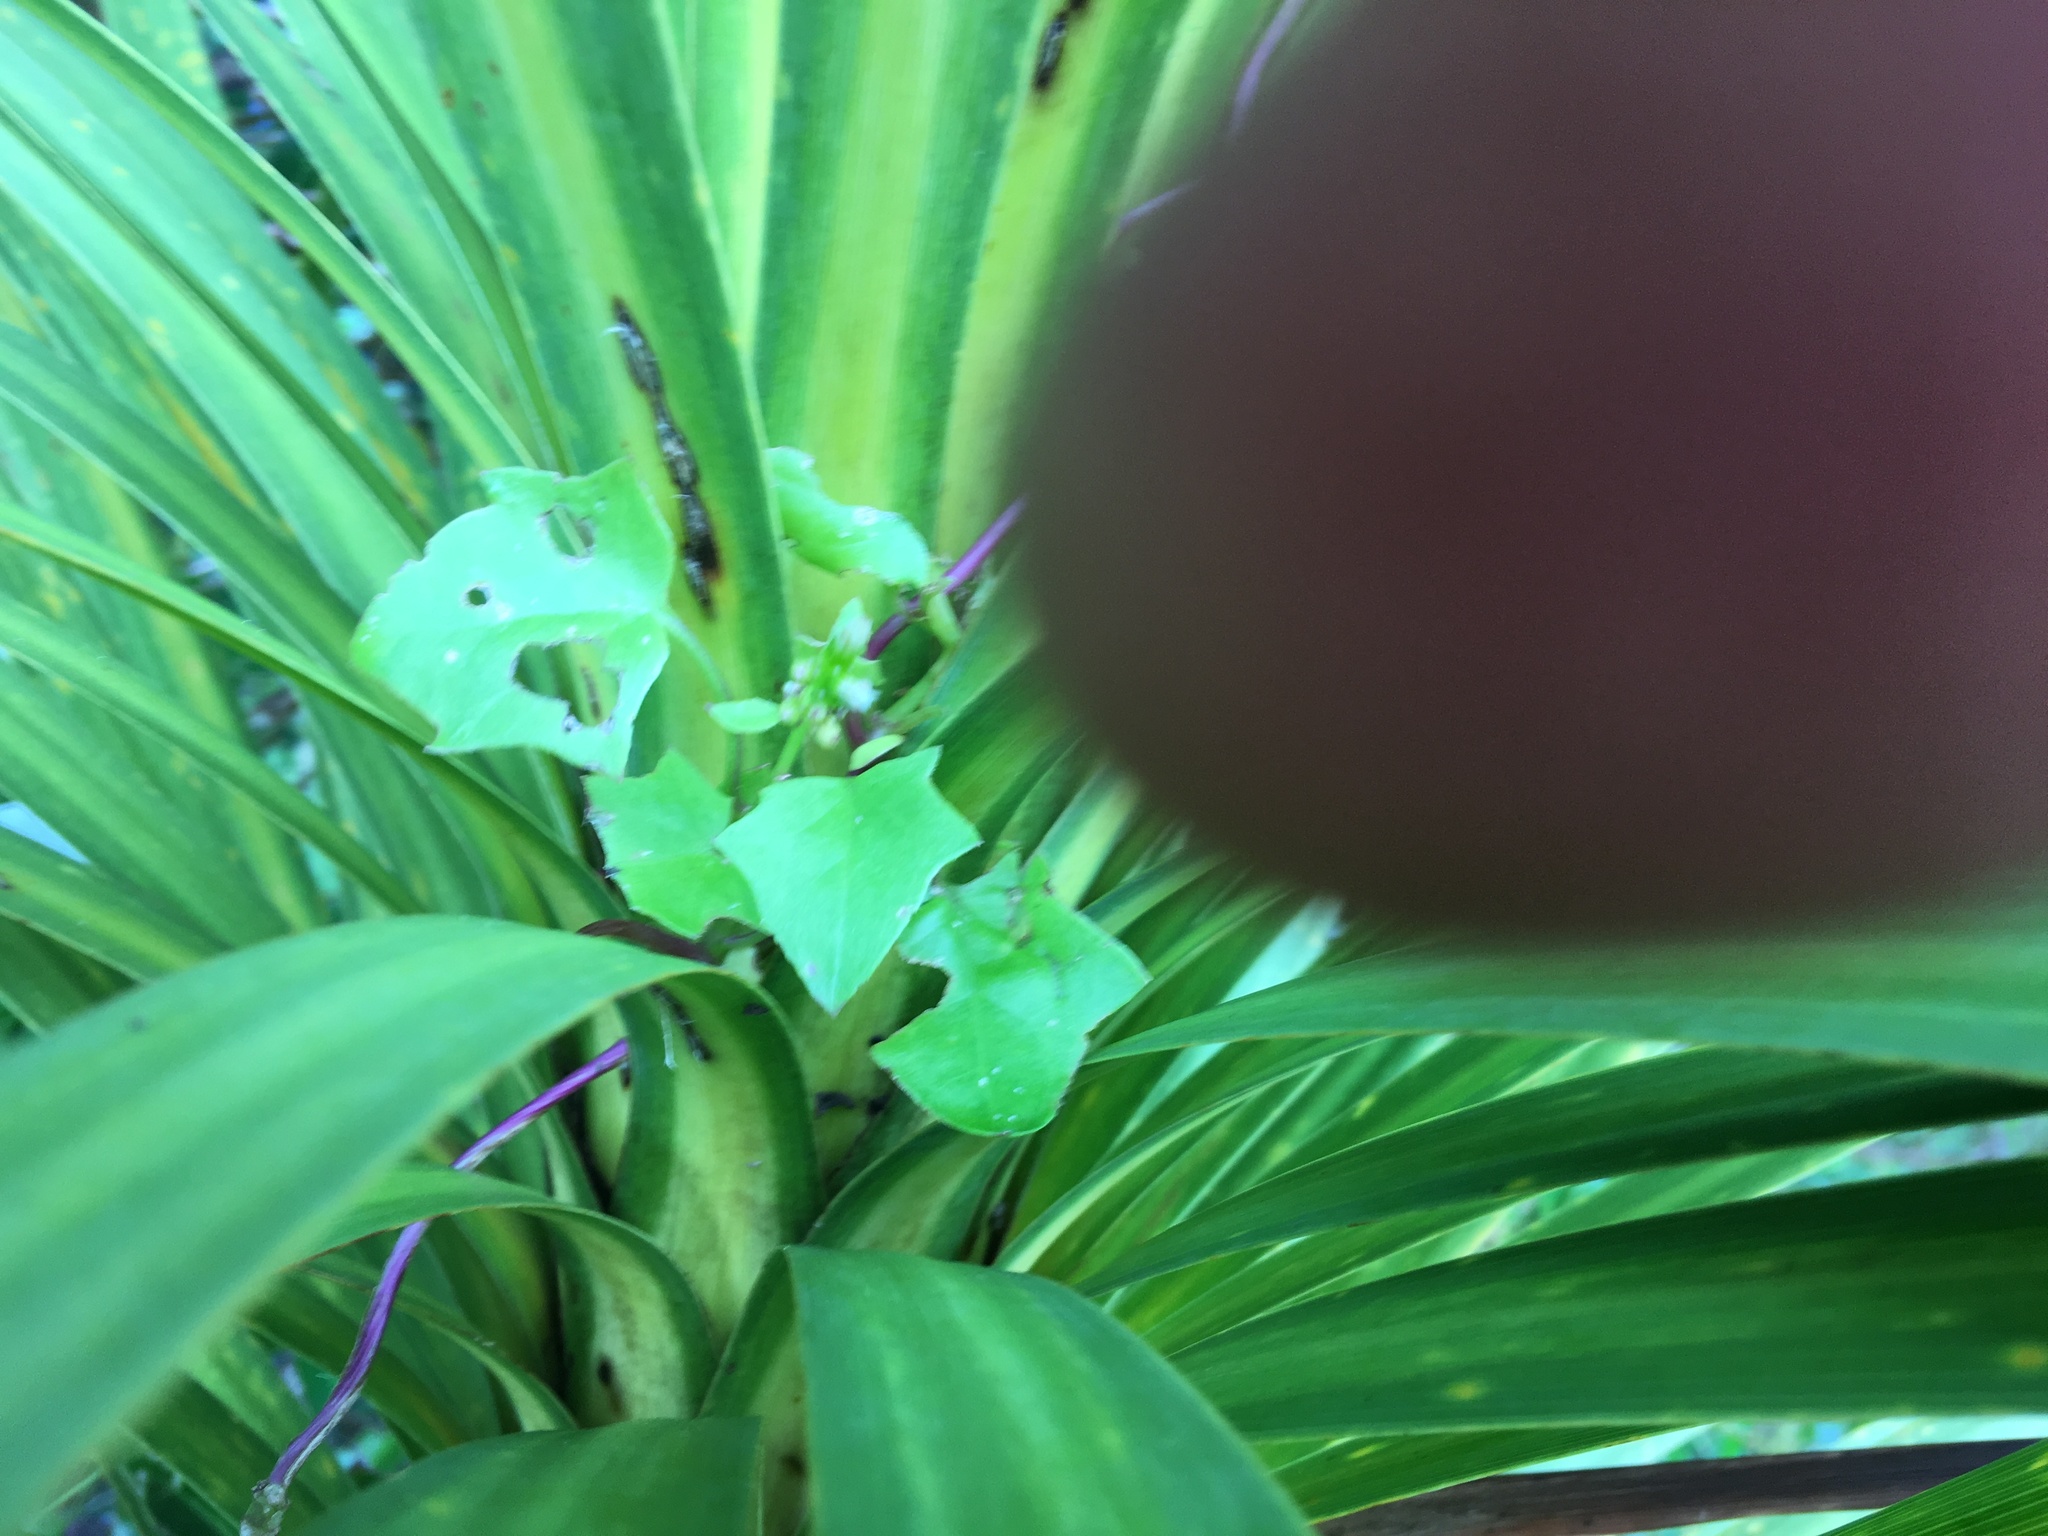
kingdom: Plantae
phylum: Tracheophyta
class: Magnoliopsida
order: Asterales
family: Asteraceae
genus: Delairea
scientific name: Delairea odorata
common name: Cape-ivy
